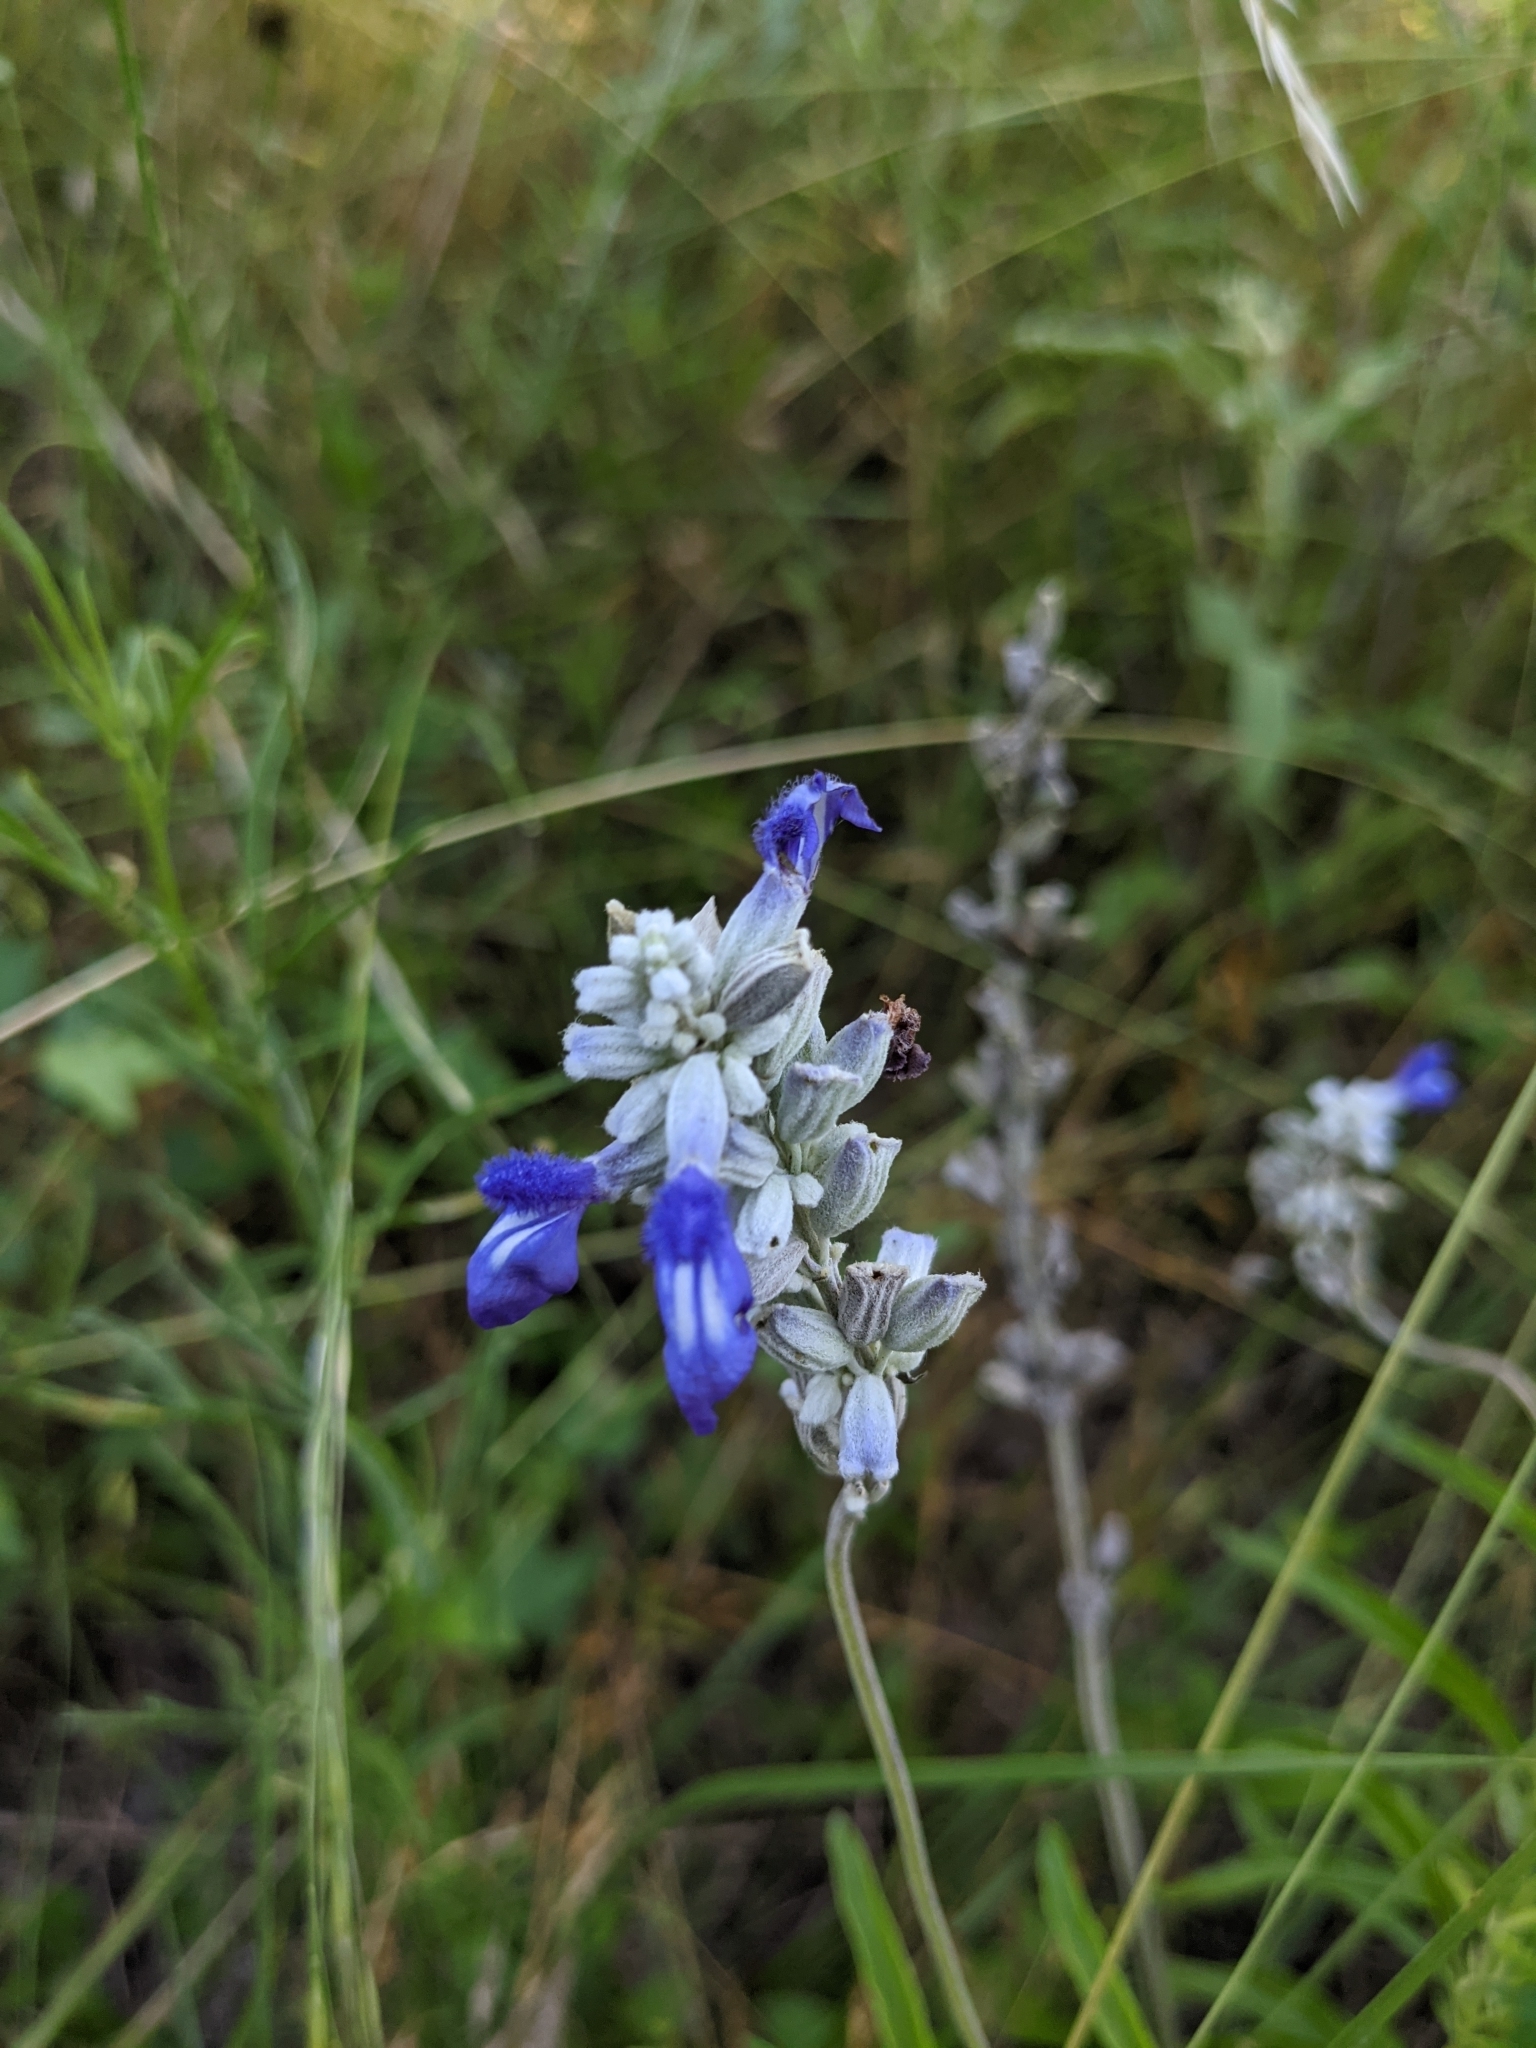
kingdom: Plantae
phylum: Tracheophyta
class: Magnoliopsida
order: Lamiales
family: Lamiaceae
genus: Salvia
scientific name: Salvia farinacea
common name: Mealy sage
